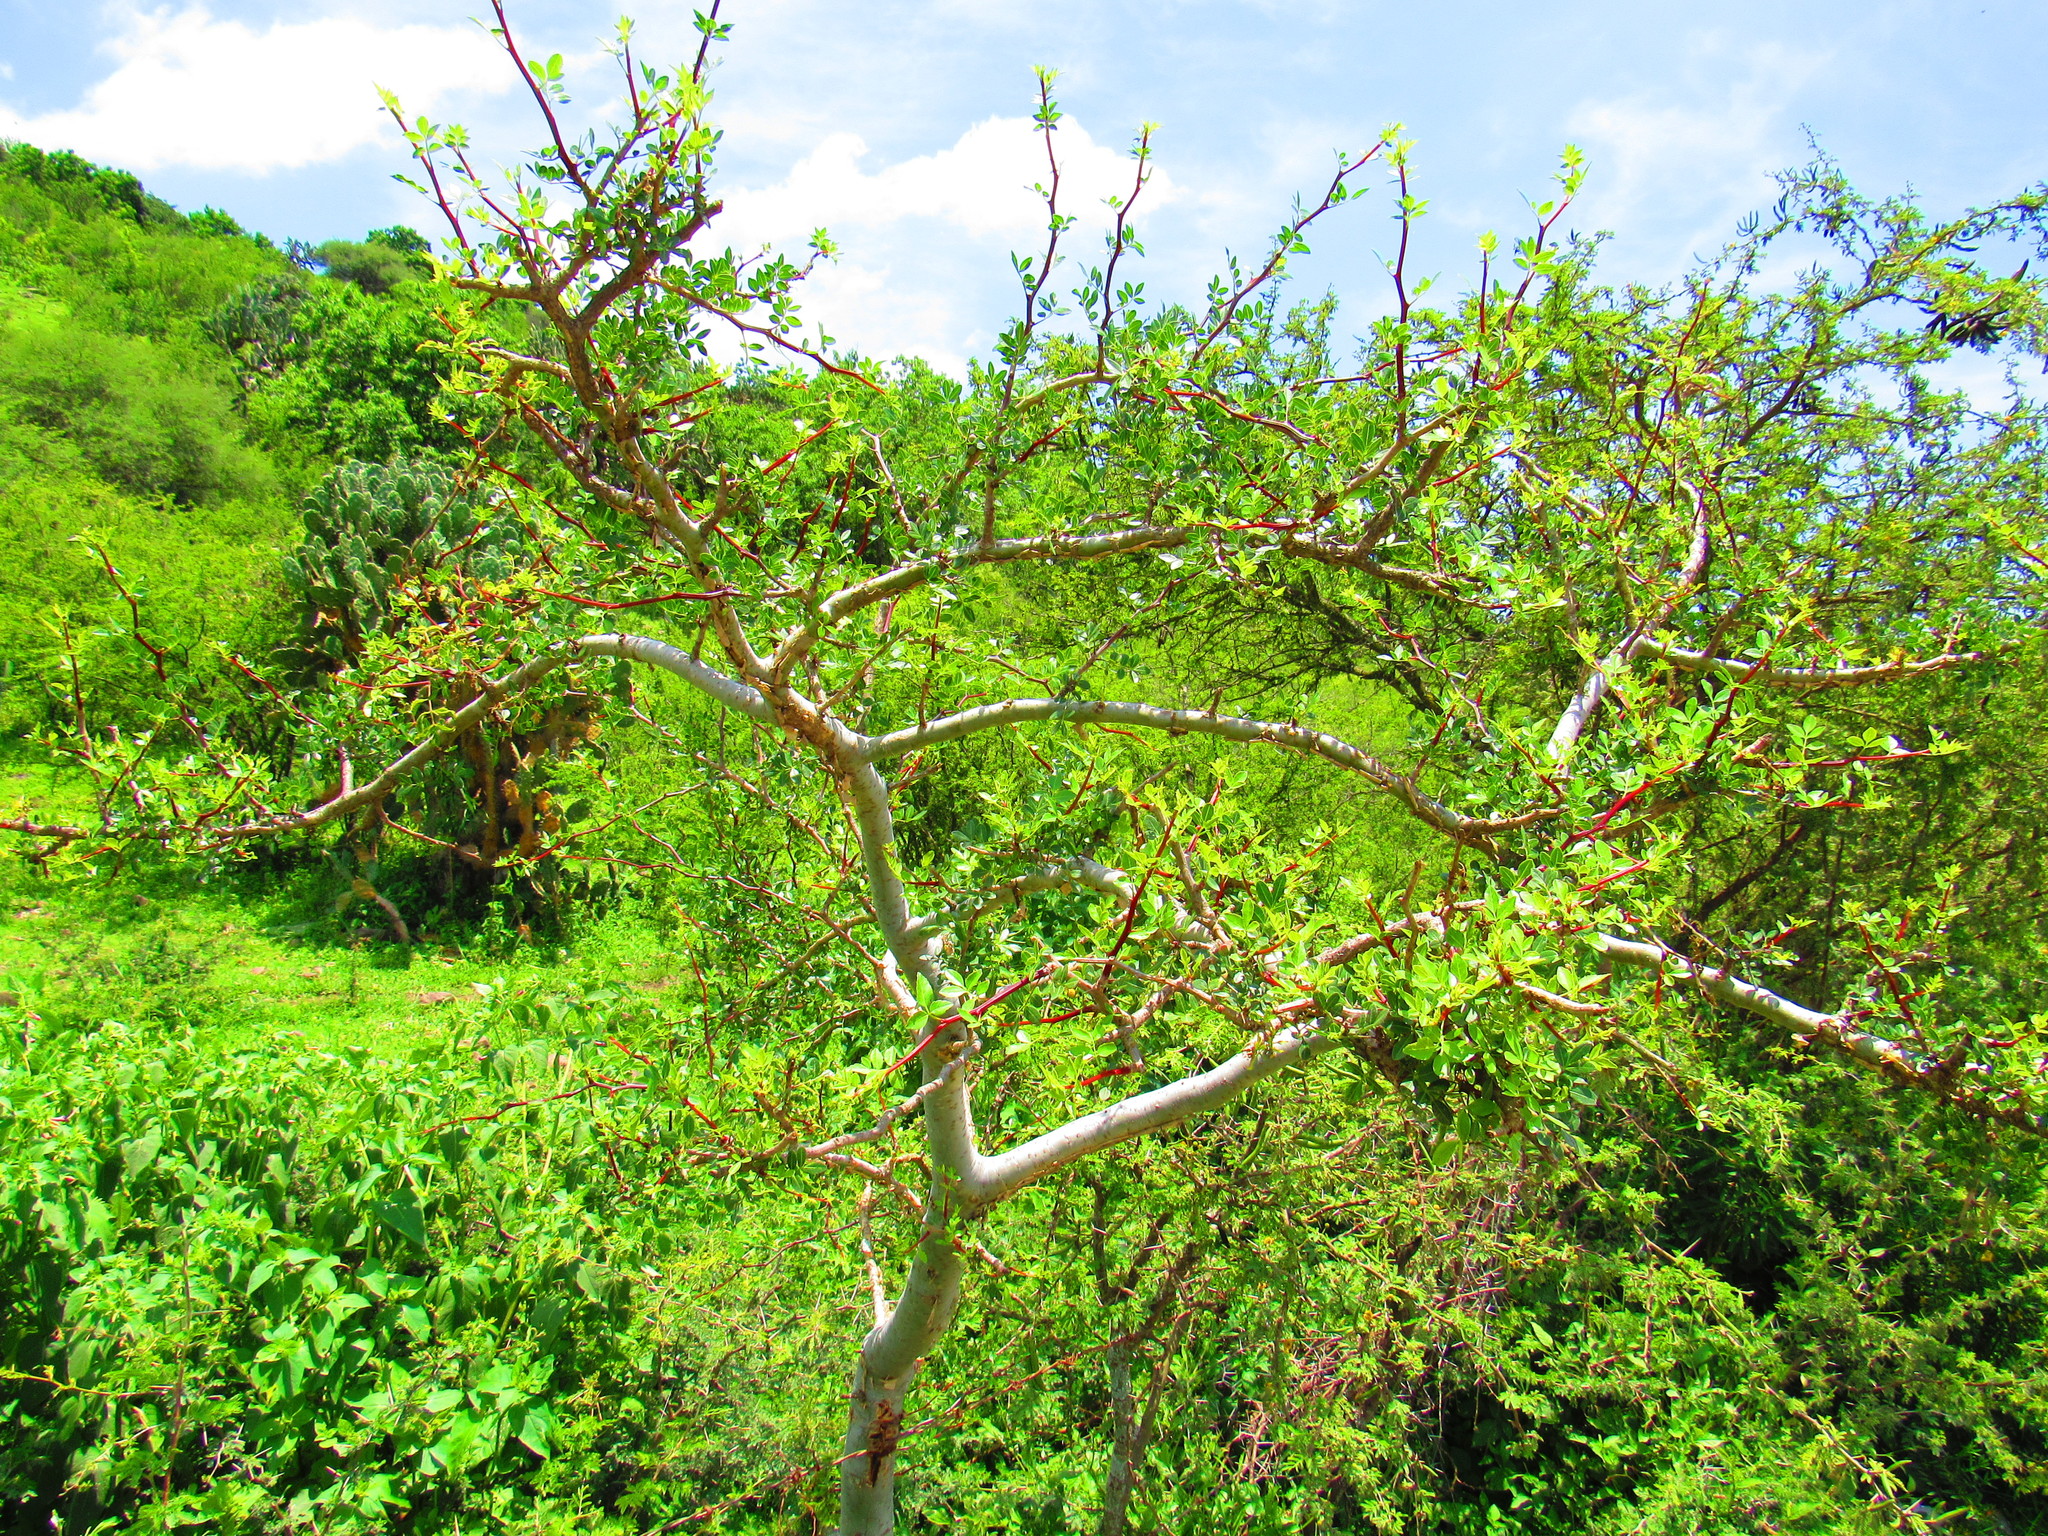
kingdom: Plantae
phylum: Tracheophyta
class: Magnoliopsida
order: Sapindales
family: Burseraceae
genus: Bursera
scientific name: Bursera fagaroides
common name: Elephant tree
